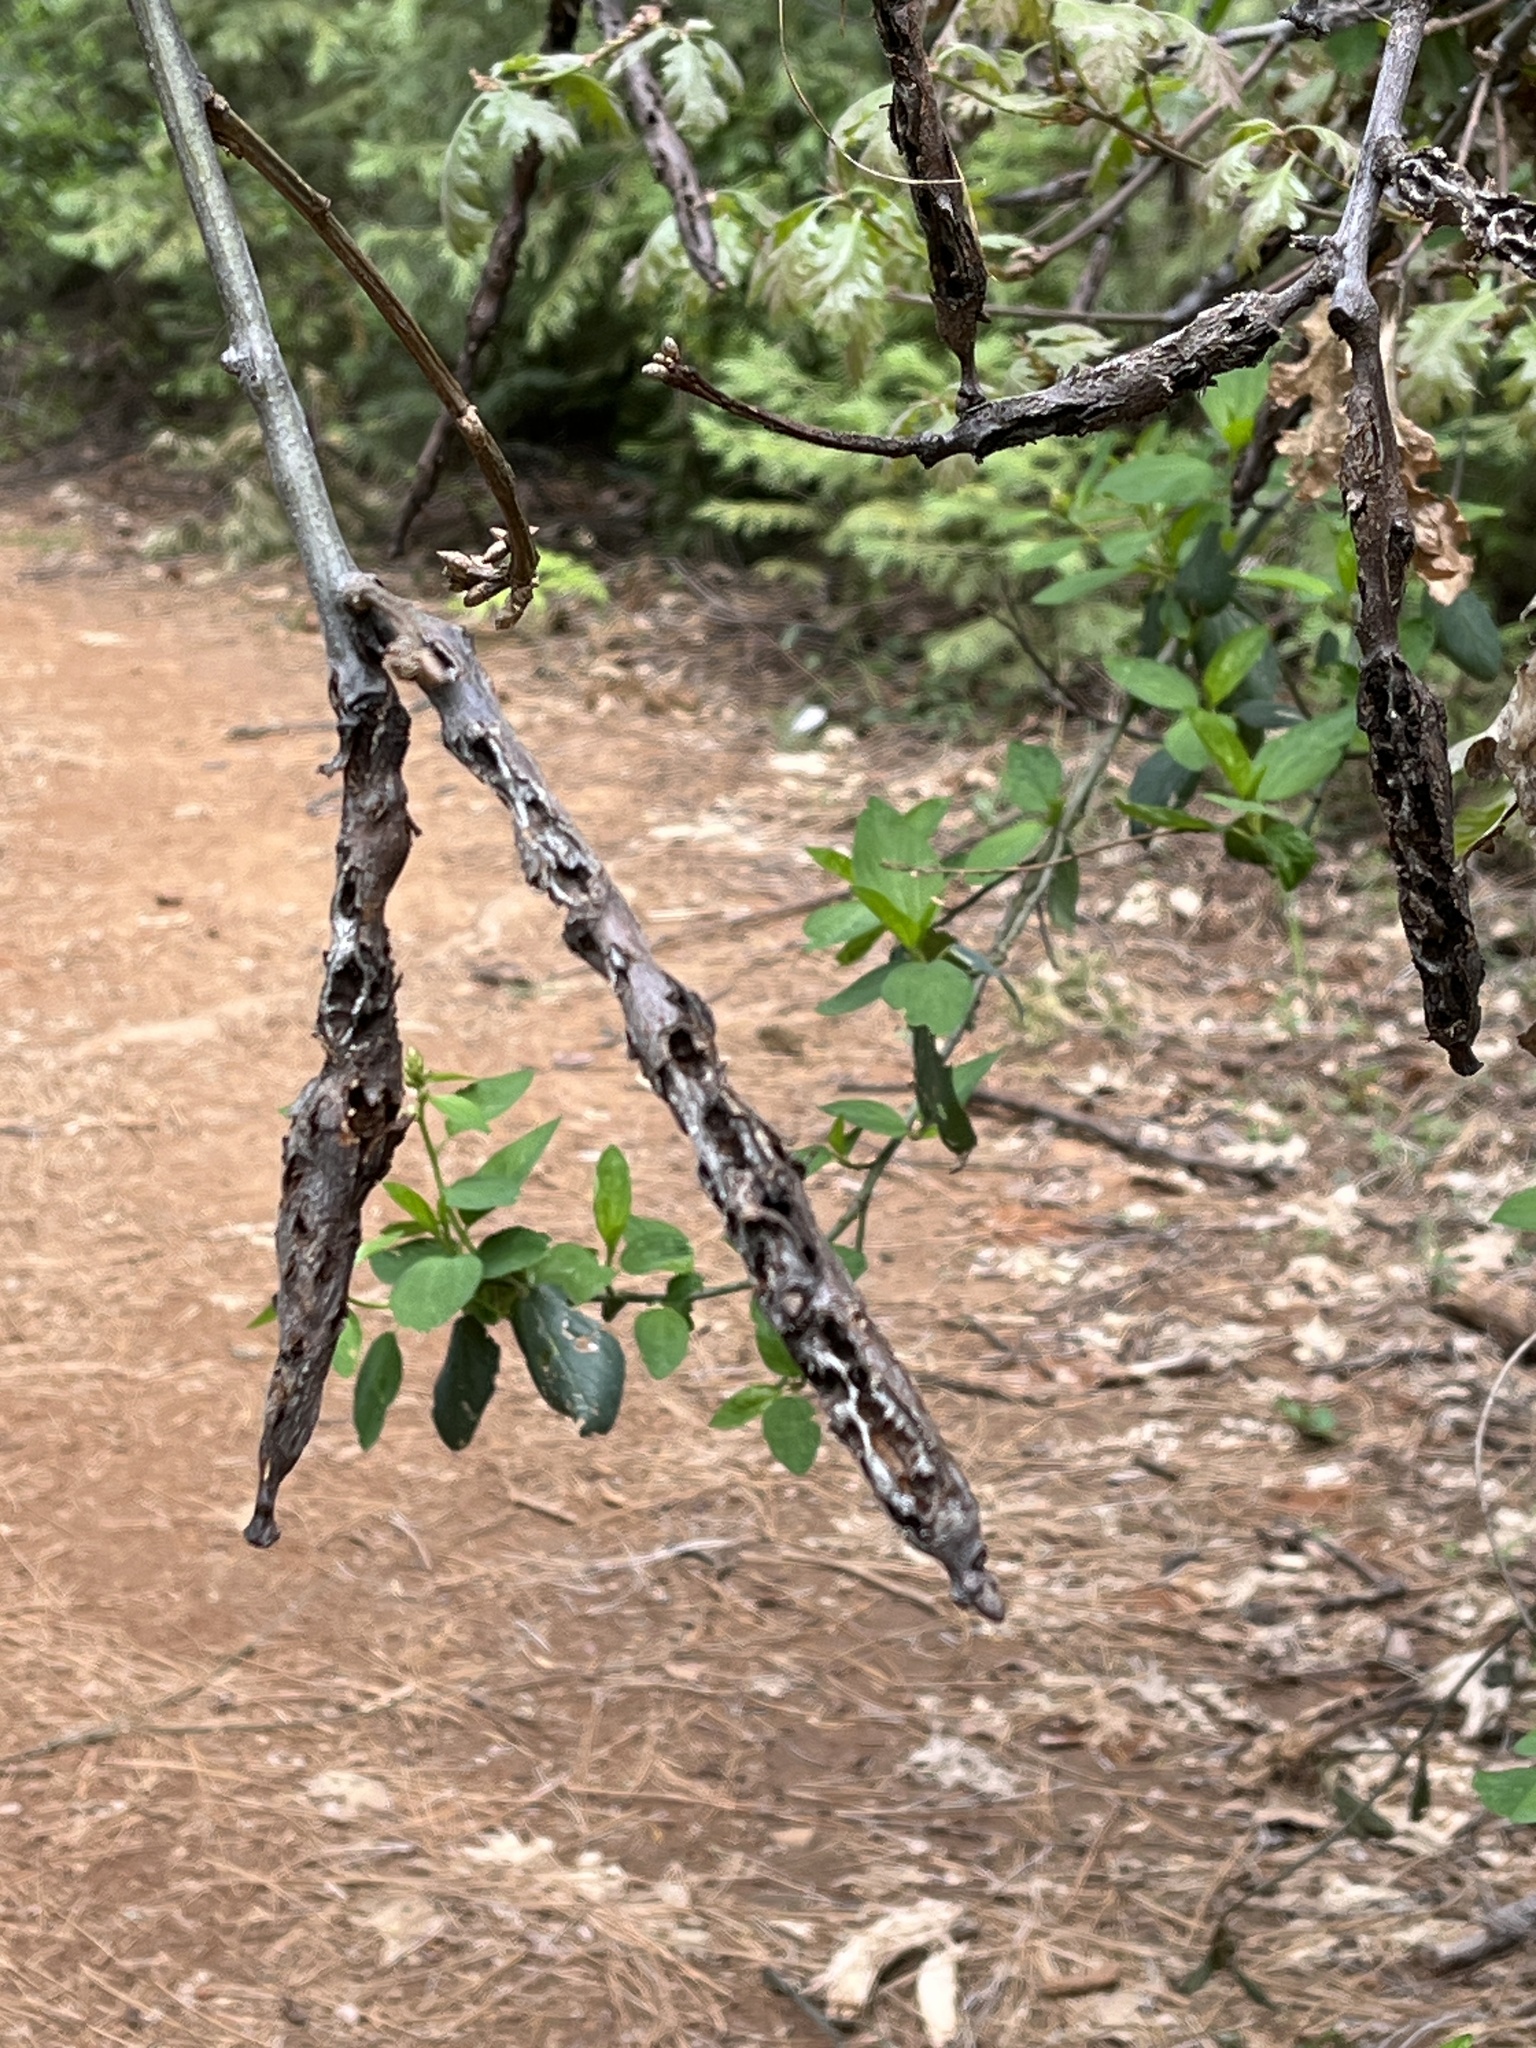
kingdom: Animalia
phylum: Arthropoda
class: Insecta
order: Hymenoptera
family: Cynipidae
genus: Callirhytis
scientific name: Callirhytis
